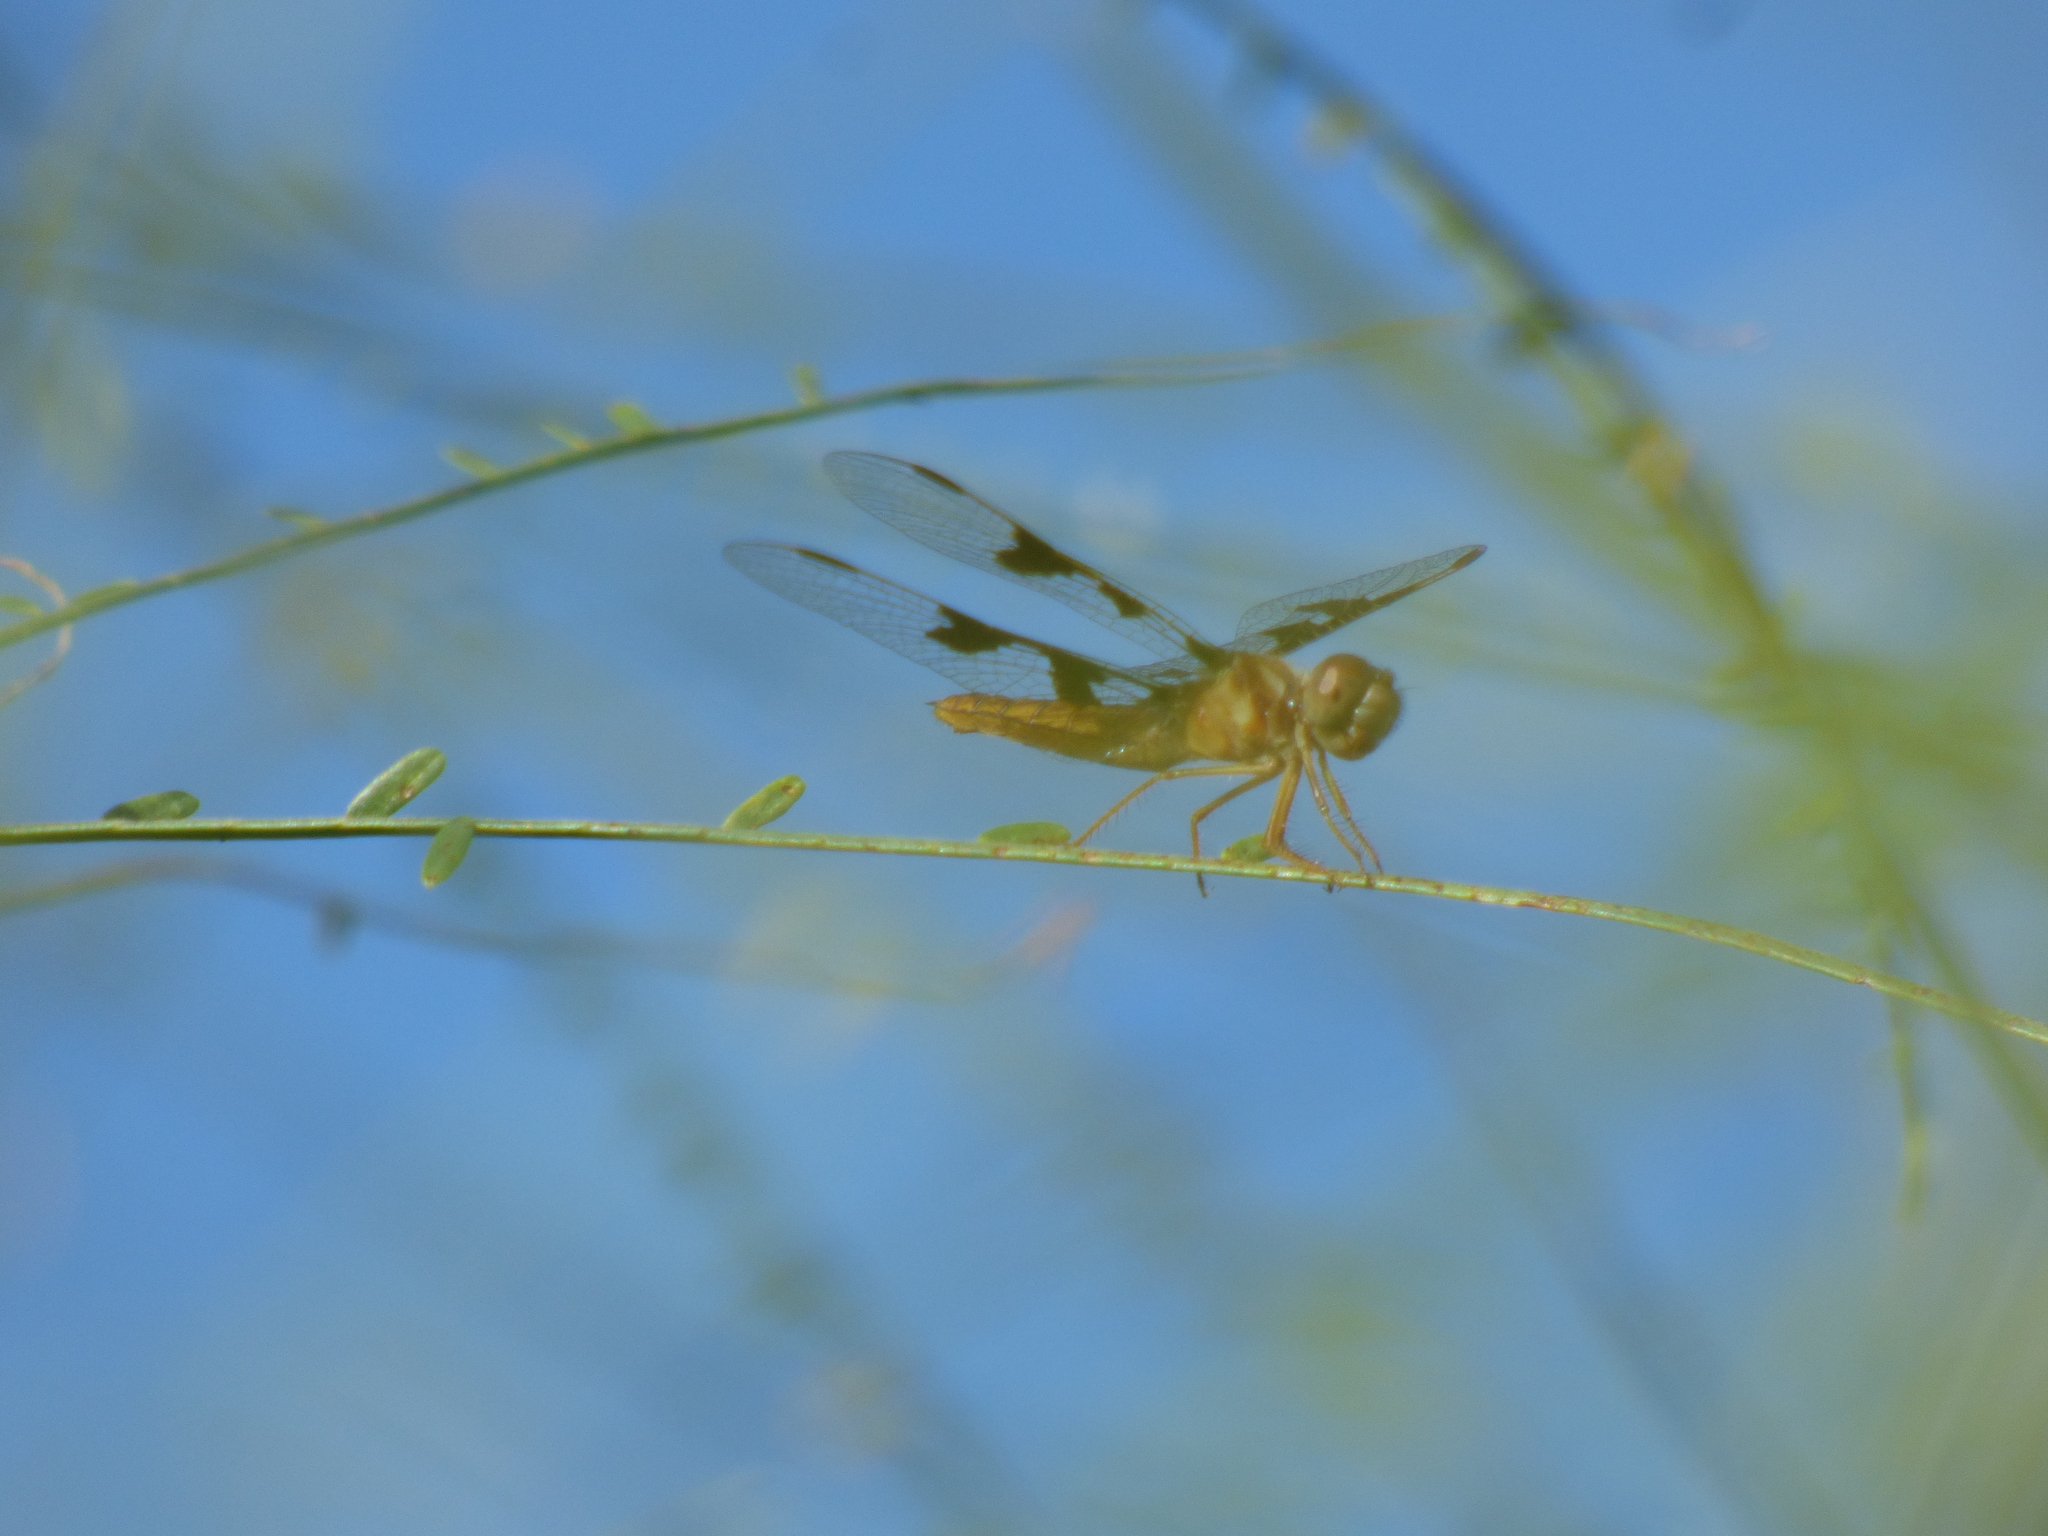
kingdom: Animalia
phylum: Arthropoda
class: Insecta
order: Odonata
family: Libellulidae
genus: Perithemis
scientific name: Perithemis tenera
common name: Eastern amberwing
